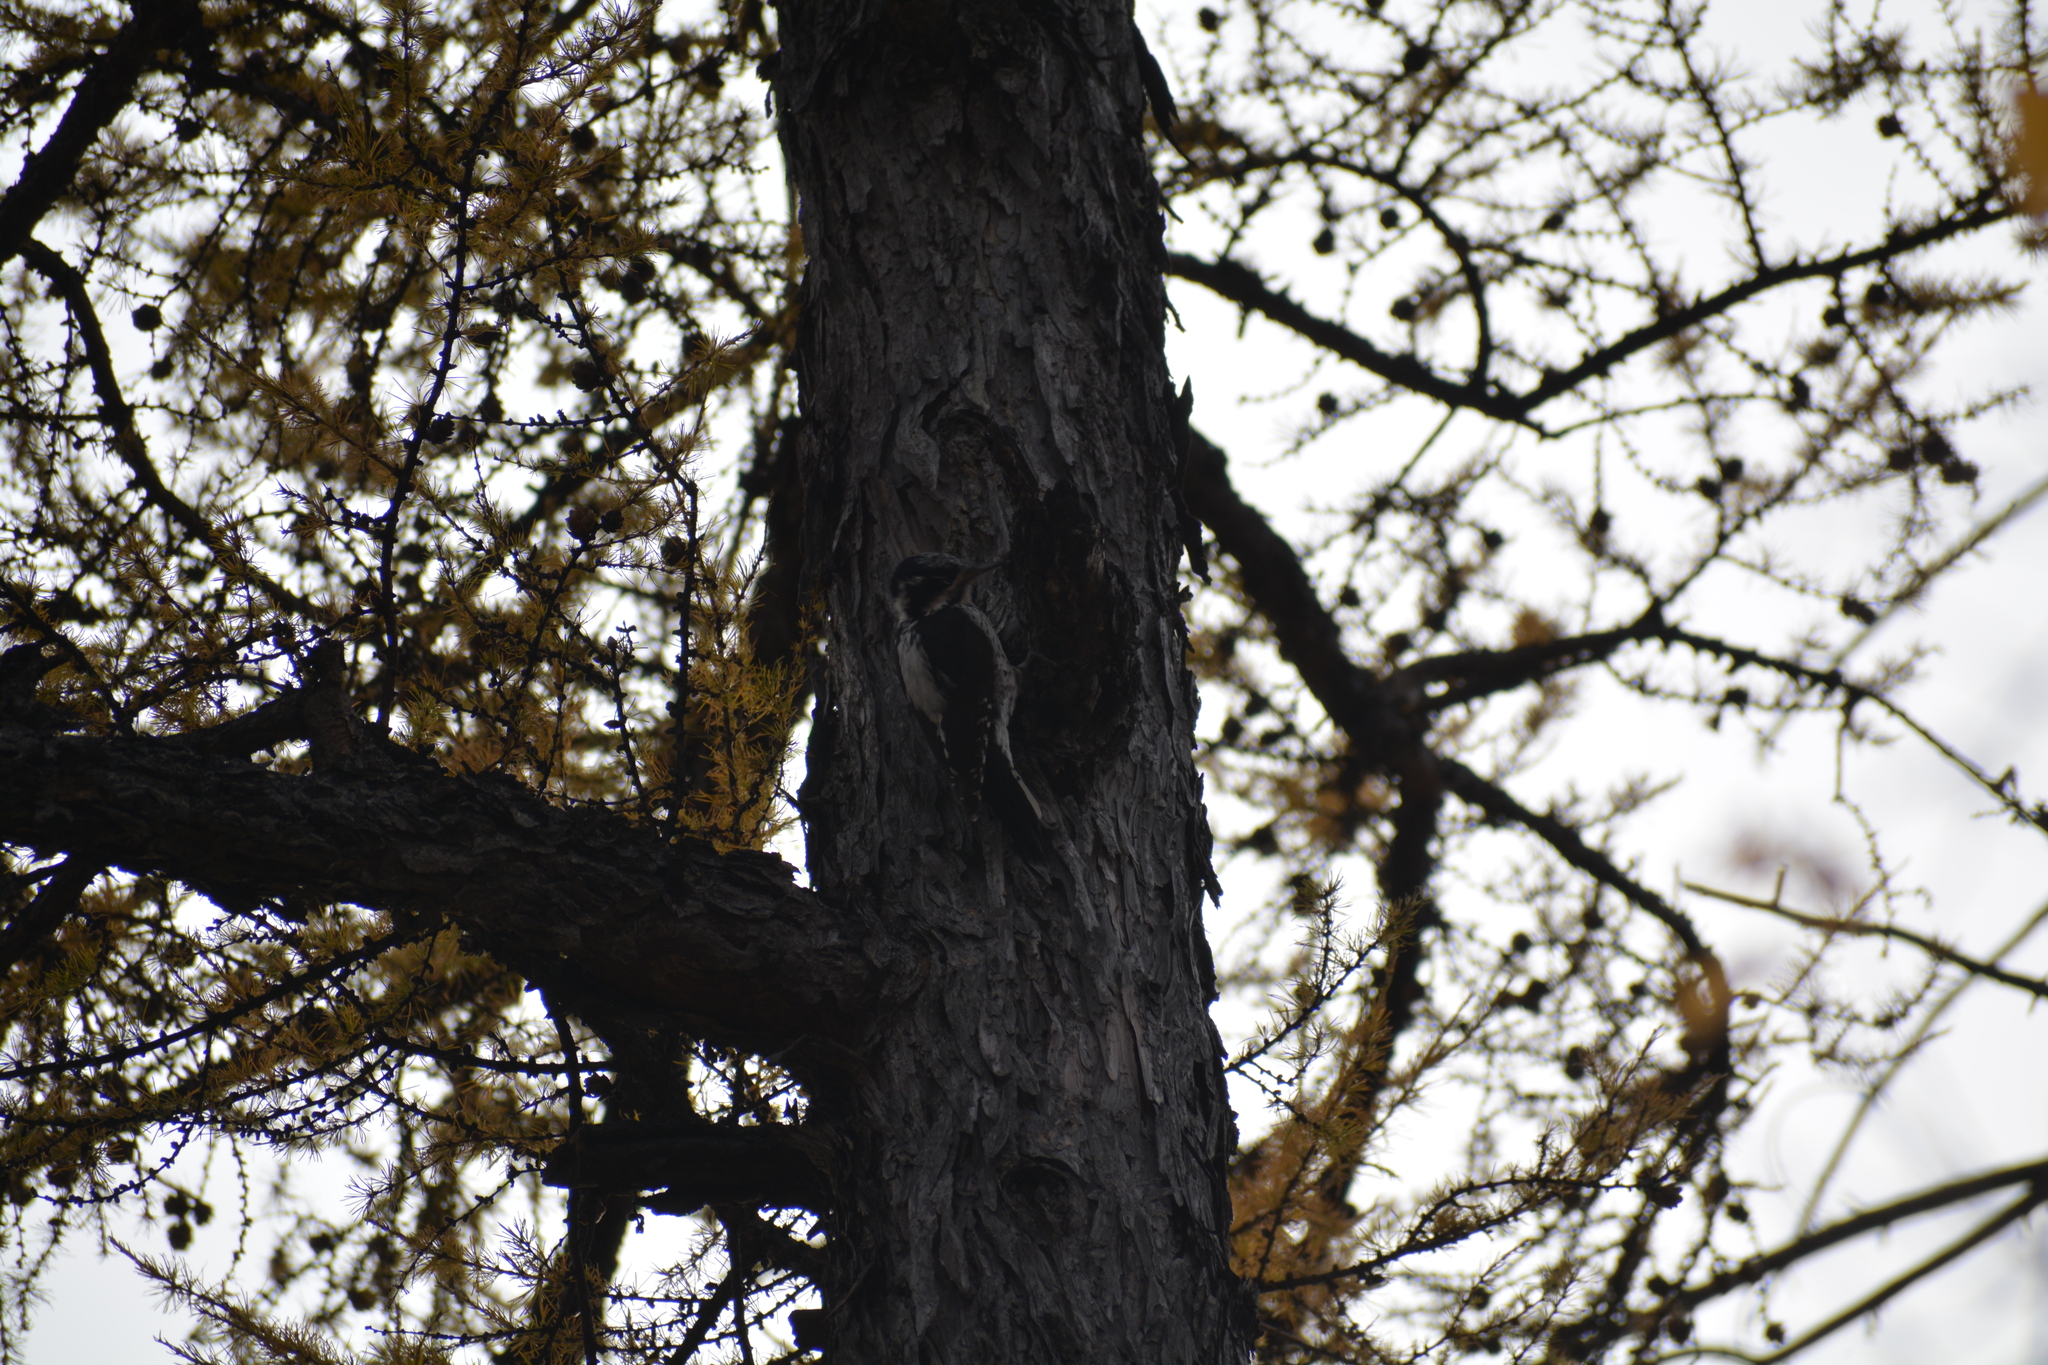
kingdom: Animalia
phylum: Chordata
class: Aves
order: Piciformes
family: Picidae
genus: Picoides
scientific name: Picoides tridactylus
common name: Eurasian three-toed woodpecker
